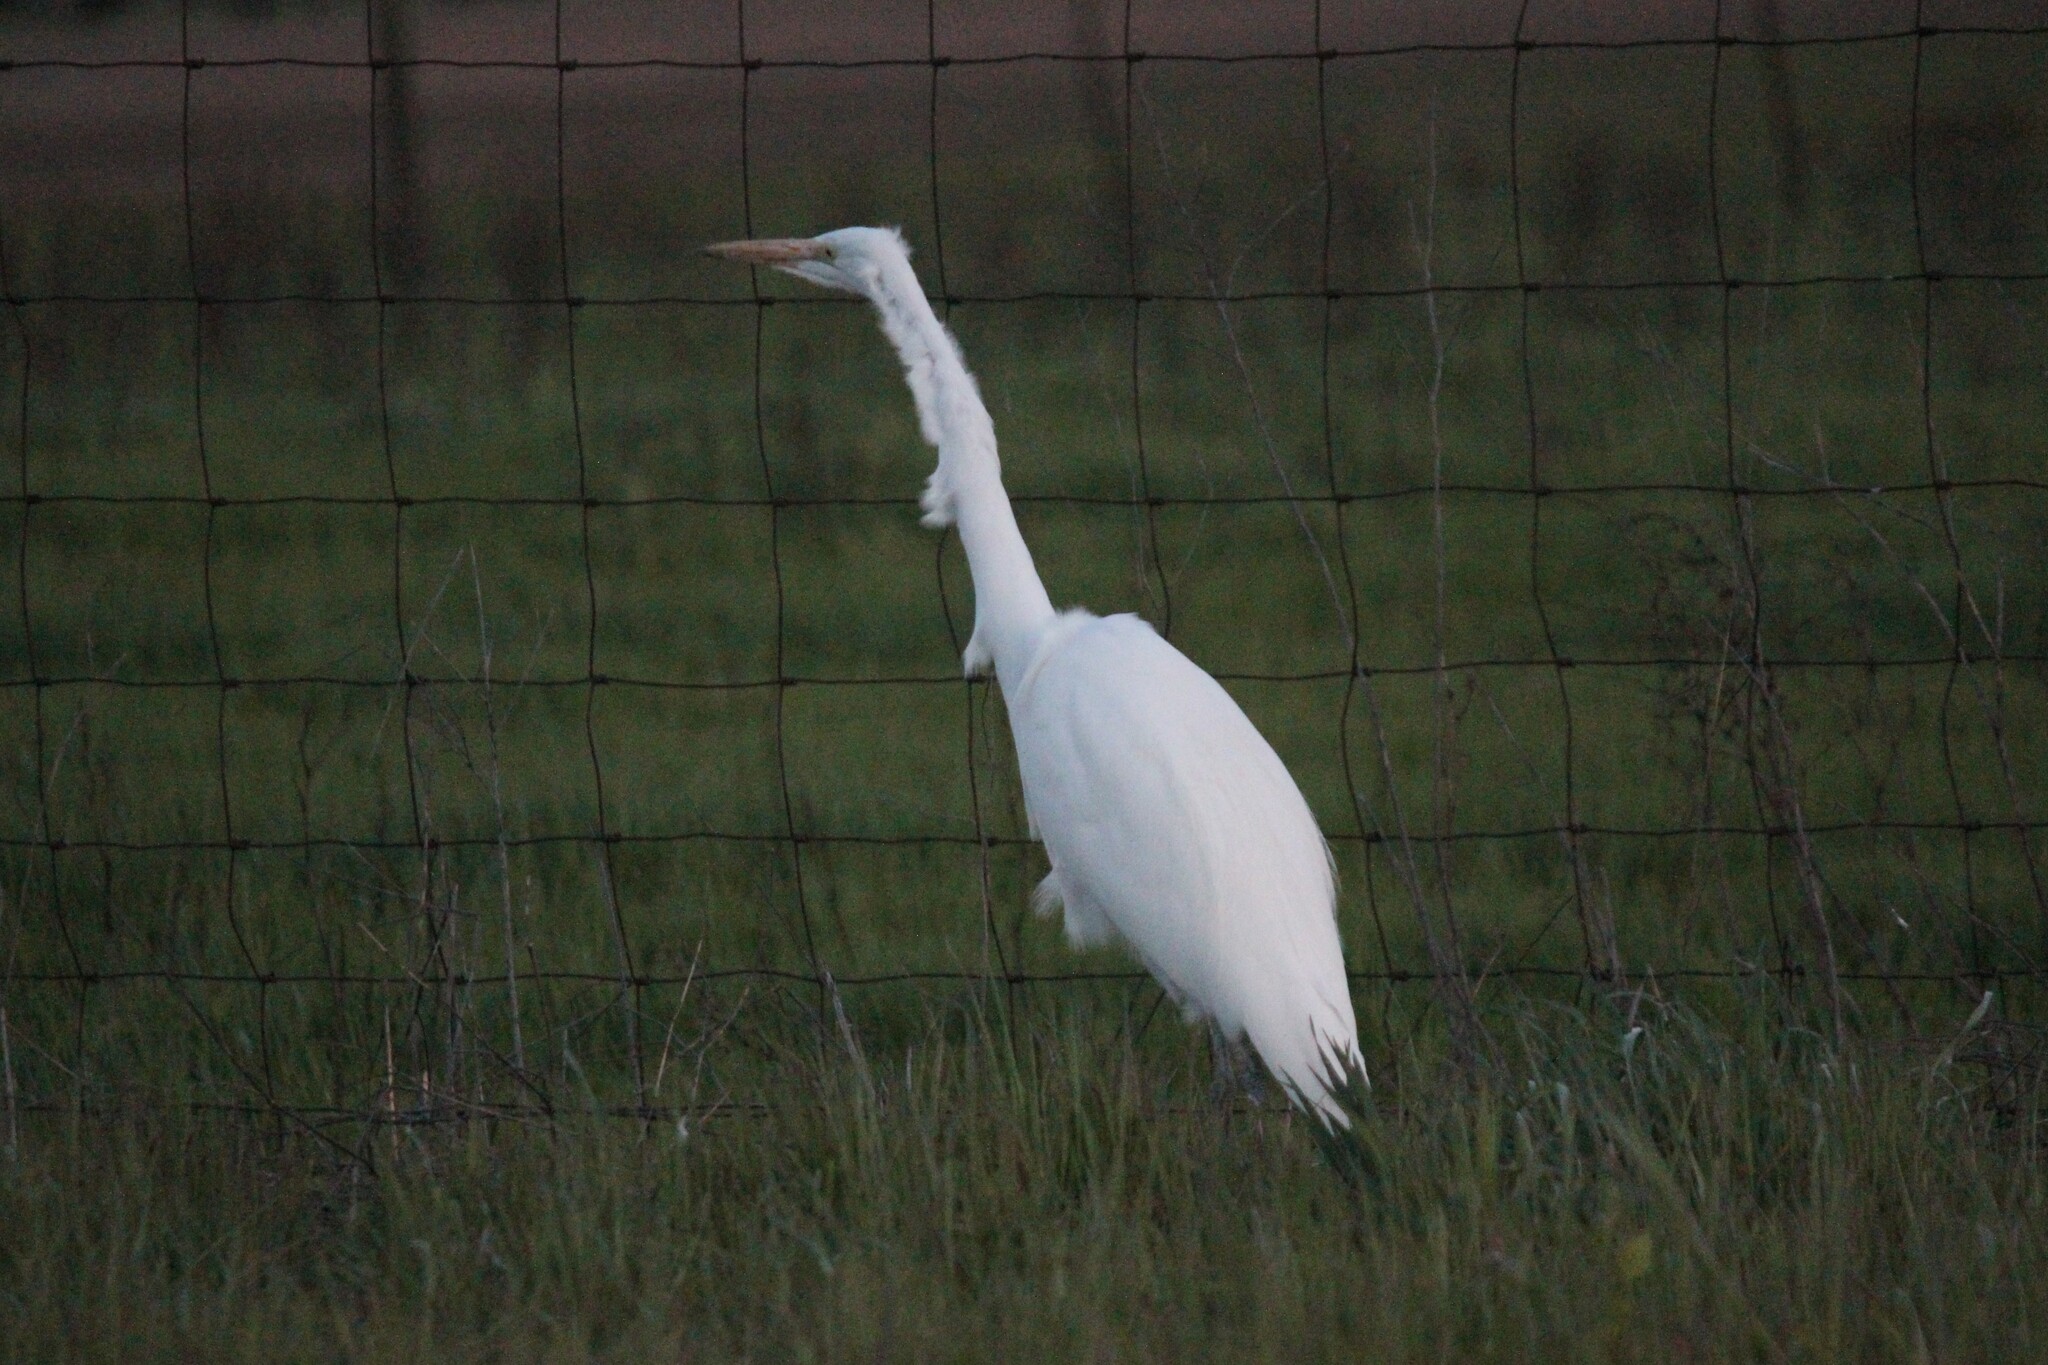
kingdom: Animalia
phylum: Chordata
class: Aves
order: Pelecaniformes
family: Ardeidae
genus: Ardea
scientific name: Ardea alba
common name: Great egret
